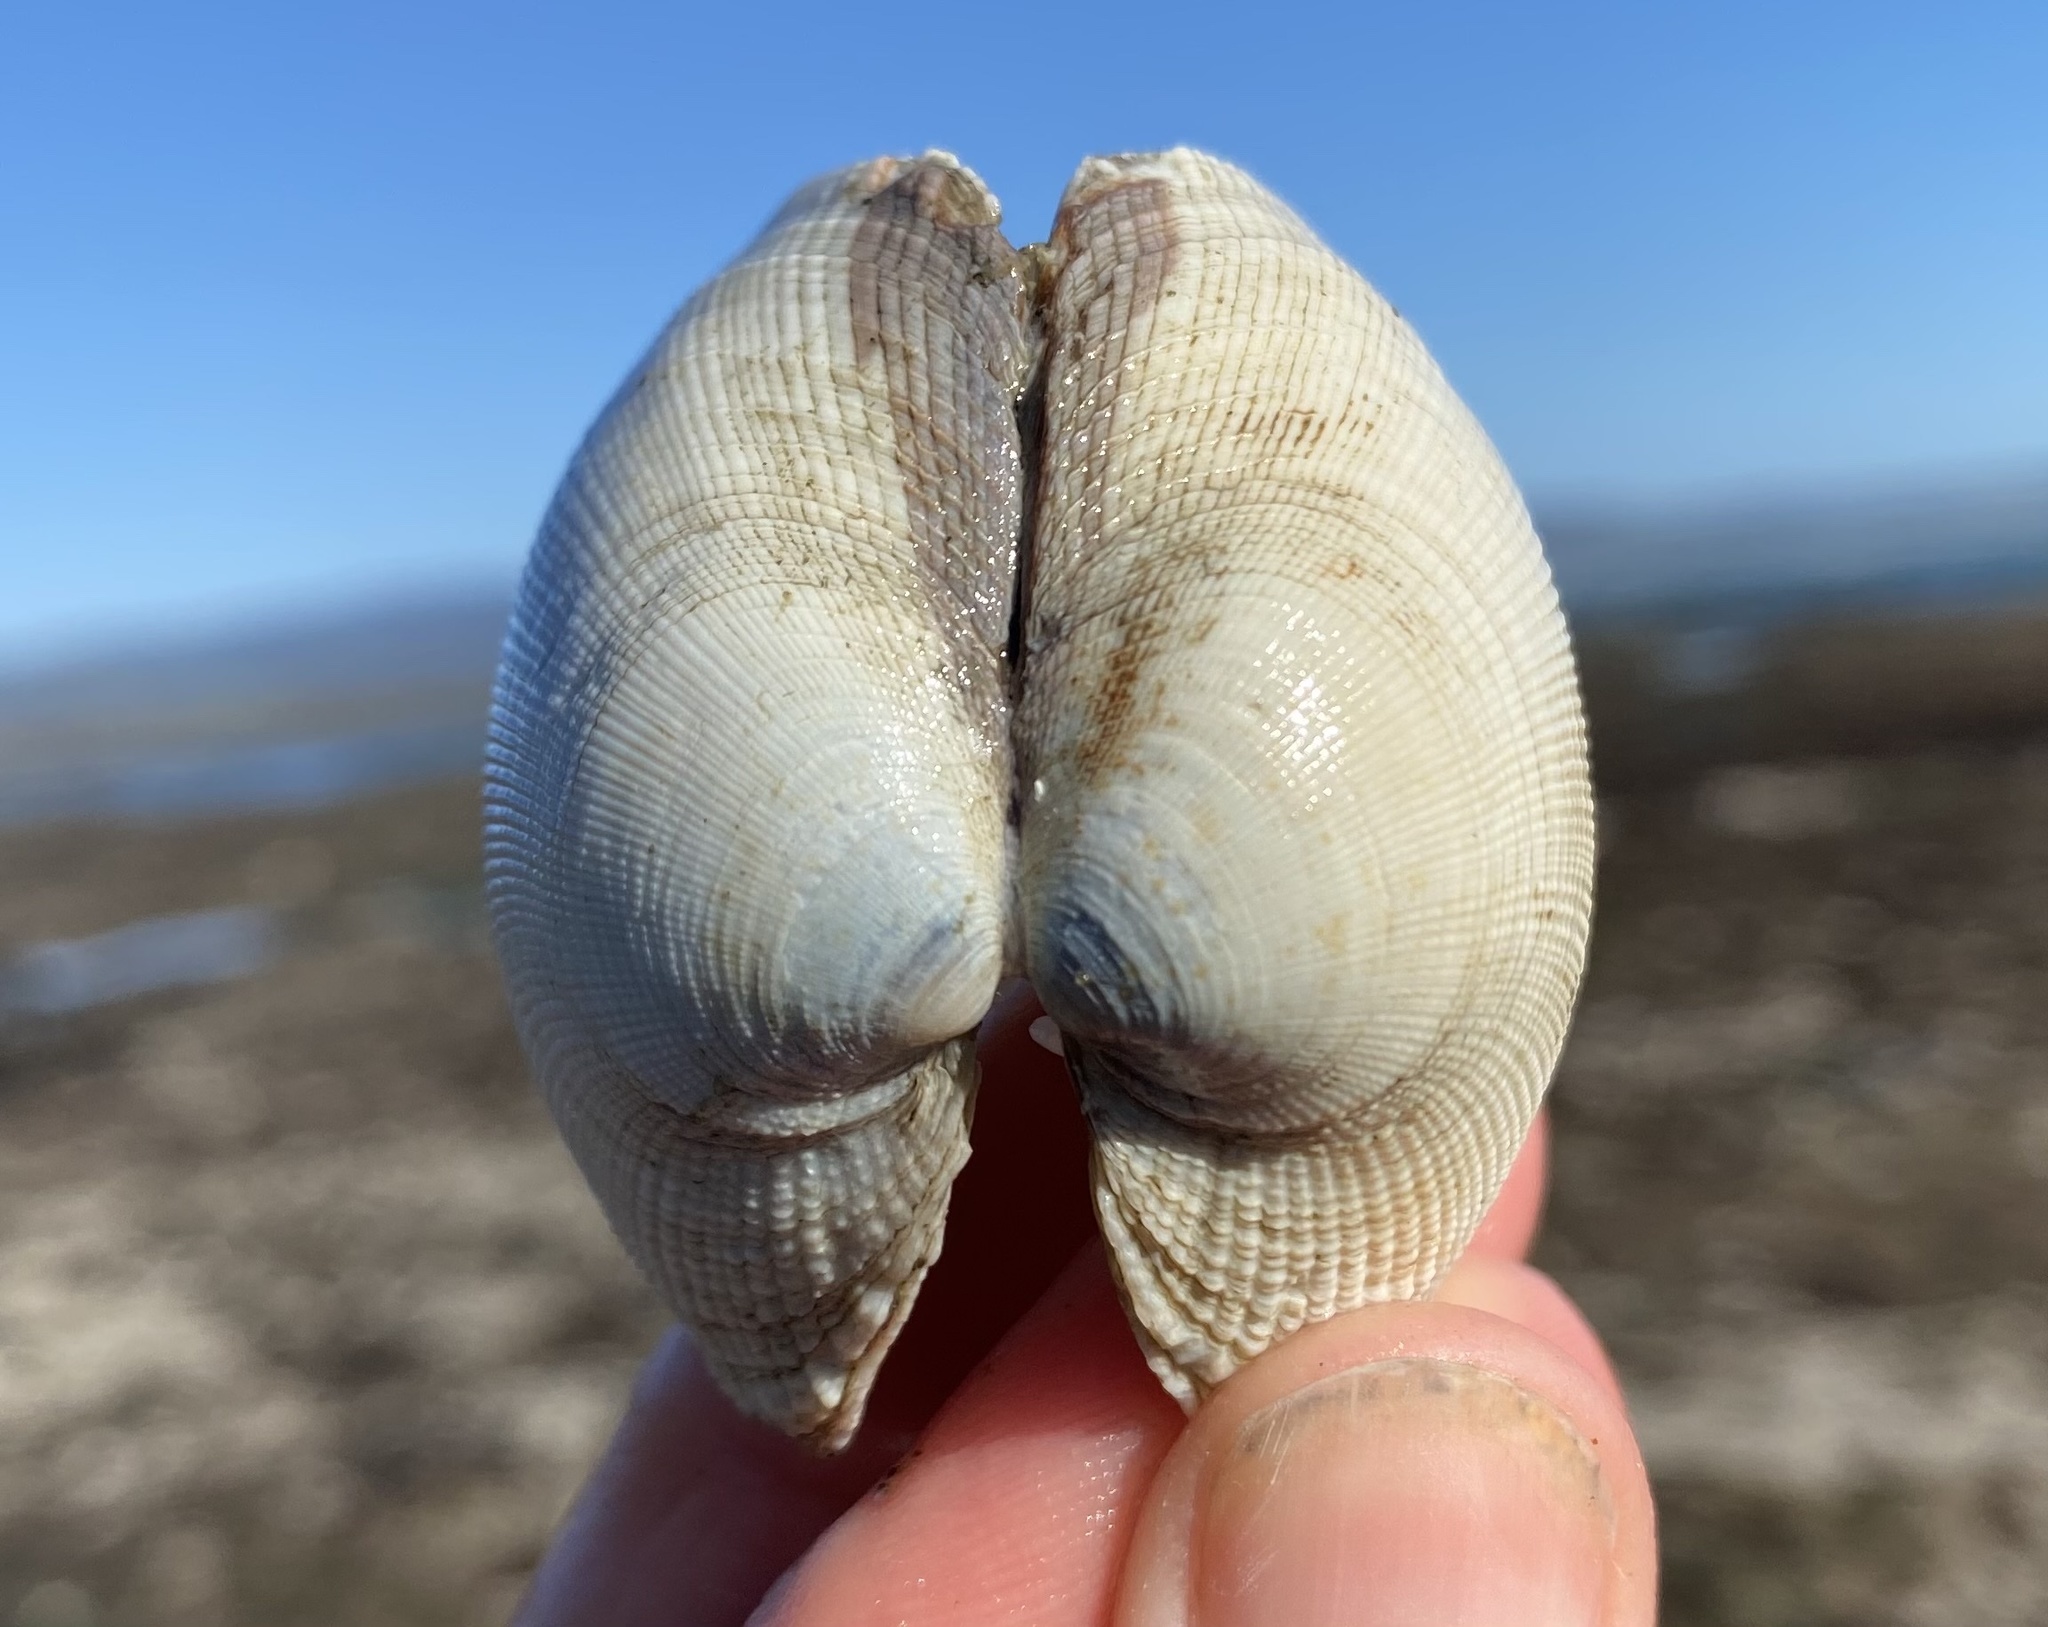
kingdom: Animalia
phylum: Mollusca
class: Bivalvia
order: Venerida
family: Veneridae
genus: Leukoma
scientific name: Leukoma staminea
